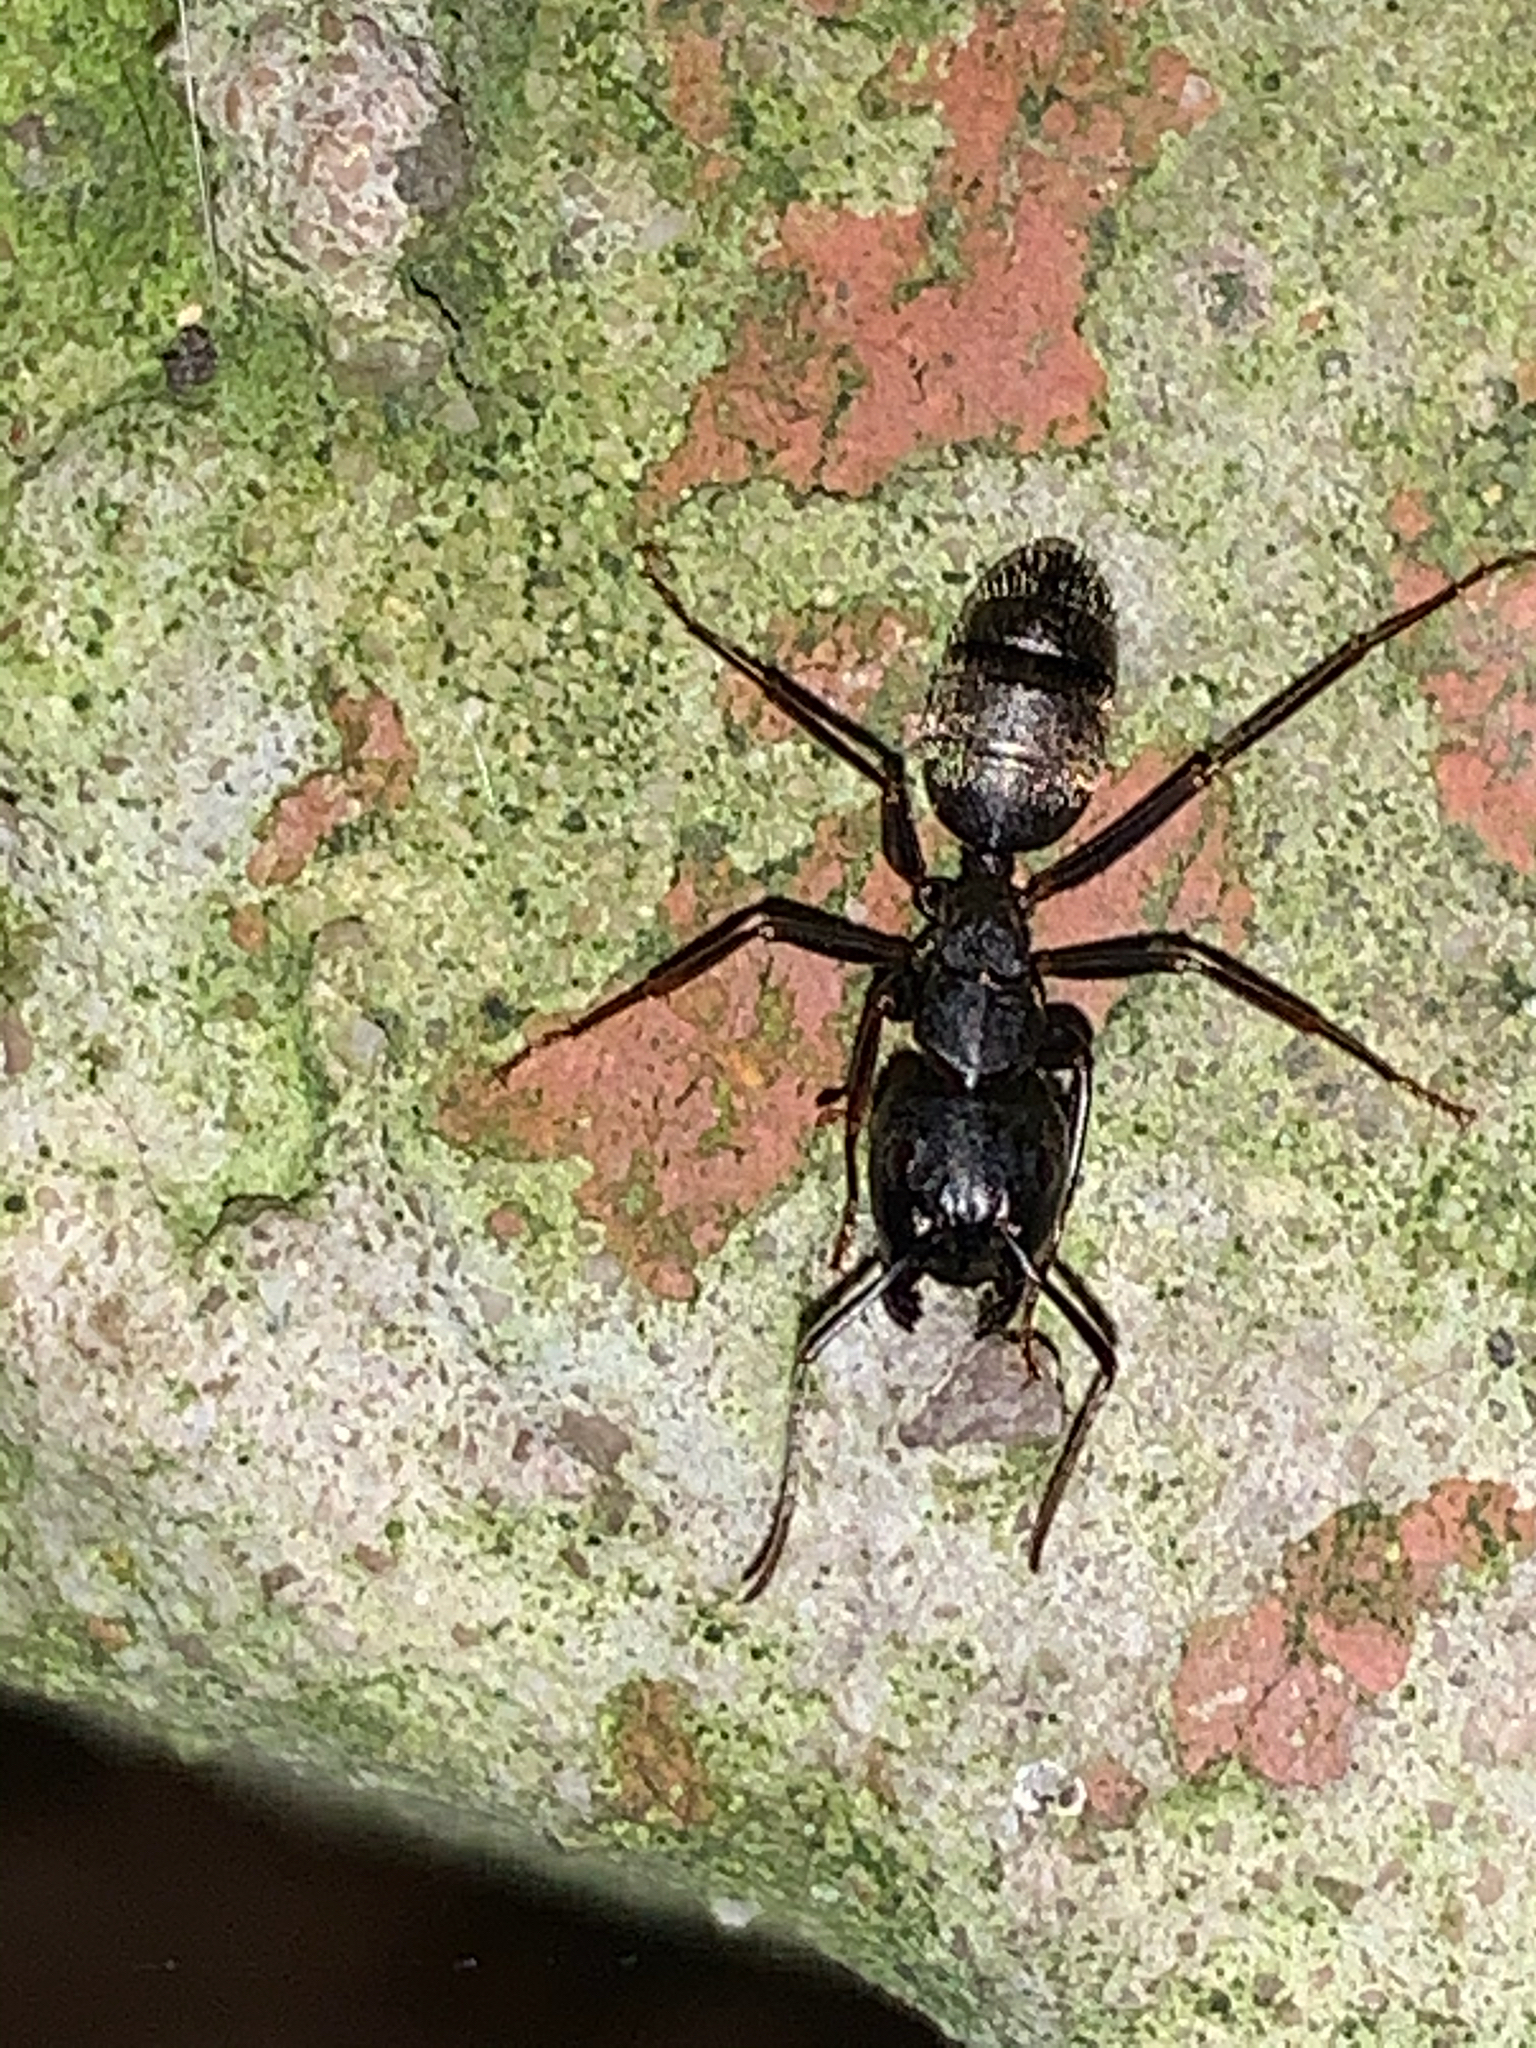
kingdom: Animalia
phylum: Arthropoda
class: Insecta
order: Hymenoptera
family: Formicidae
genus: Camponotus
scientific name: Camponotus pennsylvanicus
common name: Black carpenter ant
